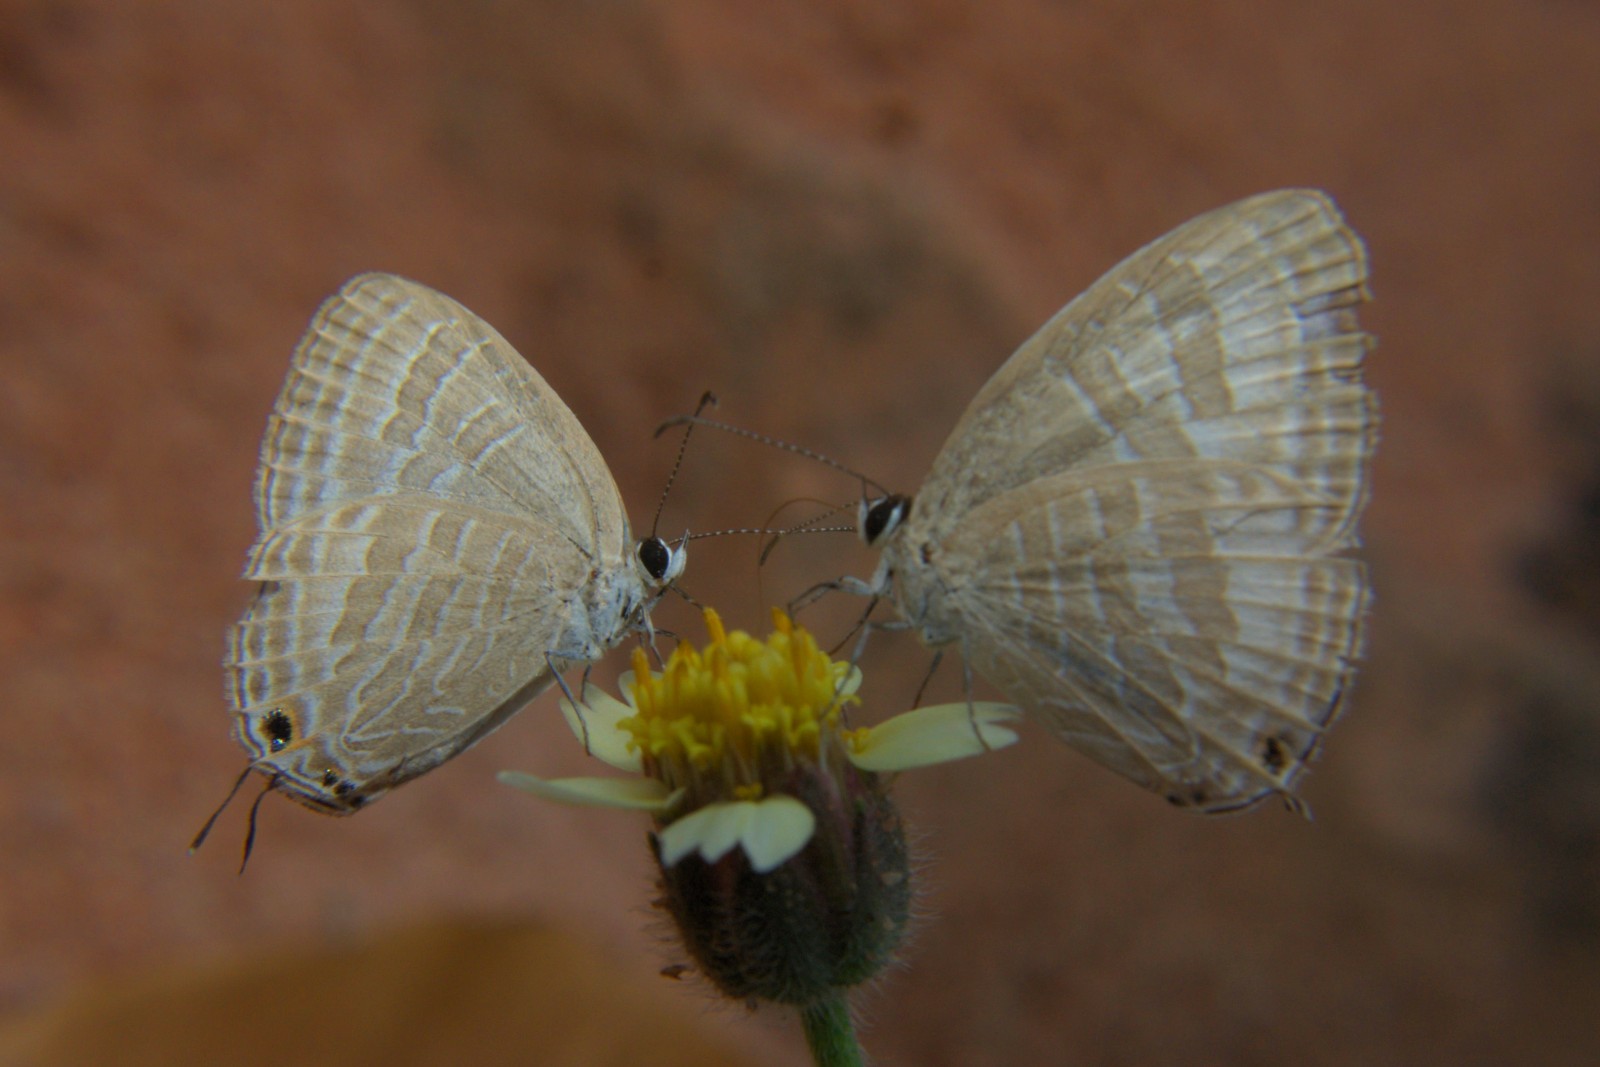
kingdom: Animalia
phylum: Arthropoda
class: Insecta
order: Lepidoptera
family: Lycaenidae
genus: Jamides
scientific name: Jamides celeno
